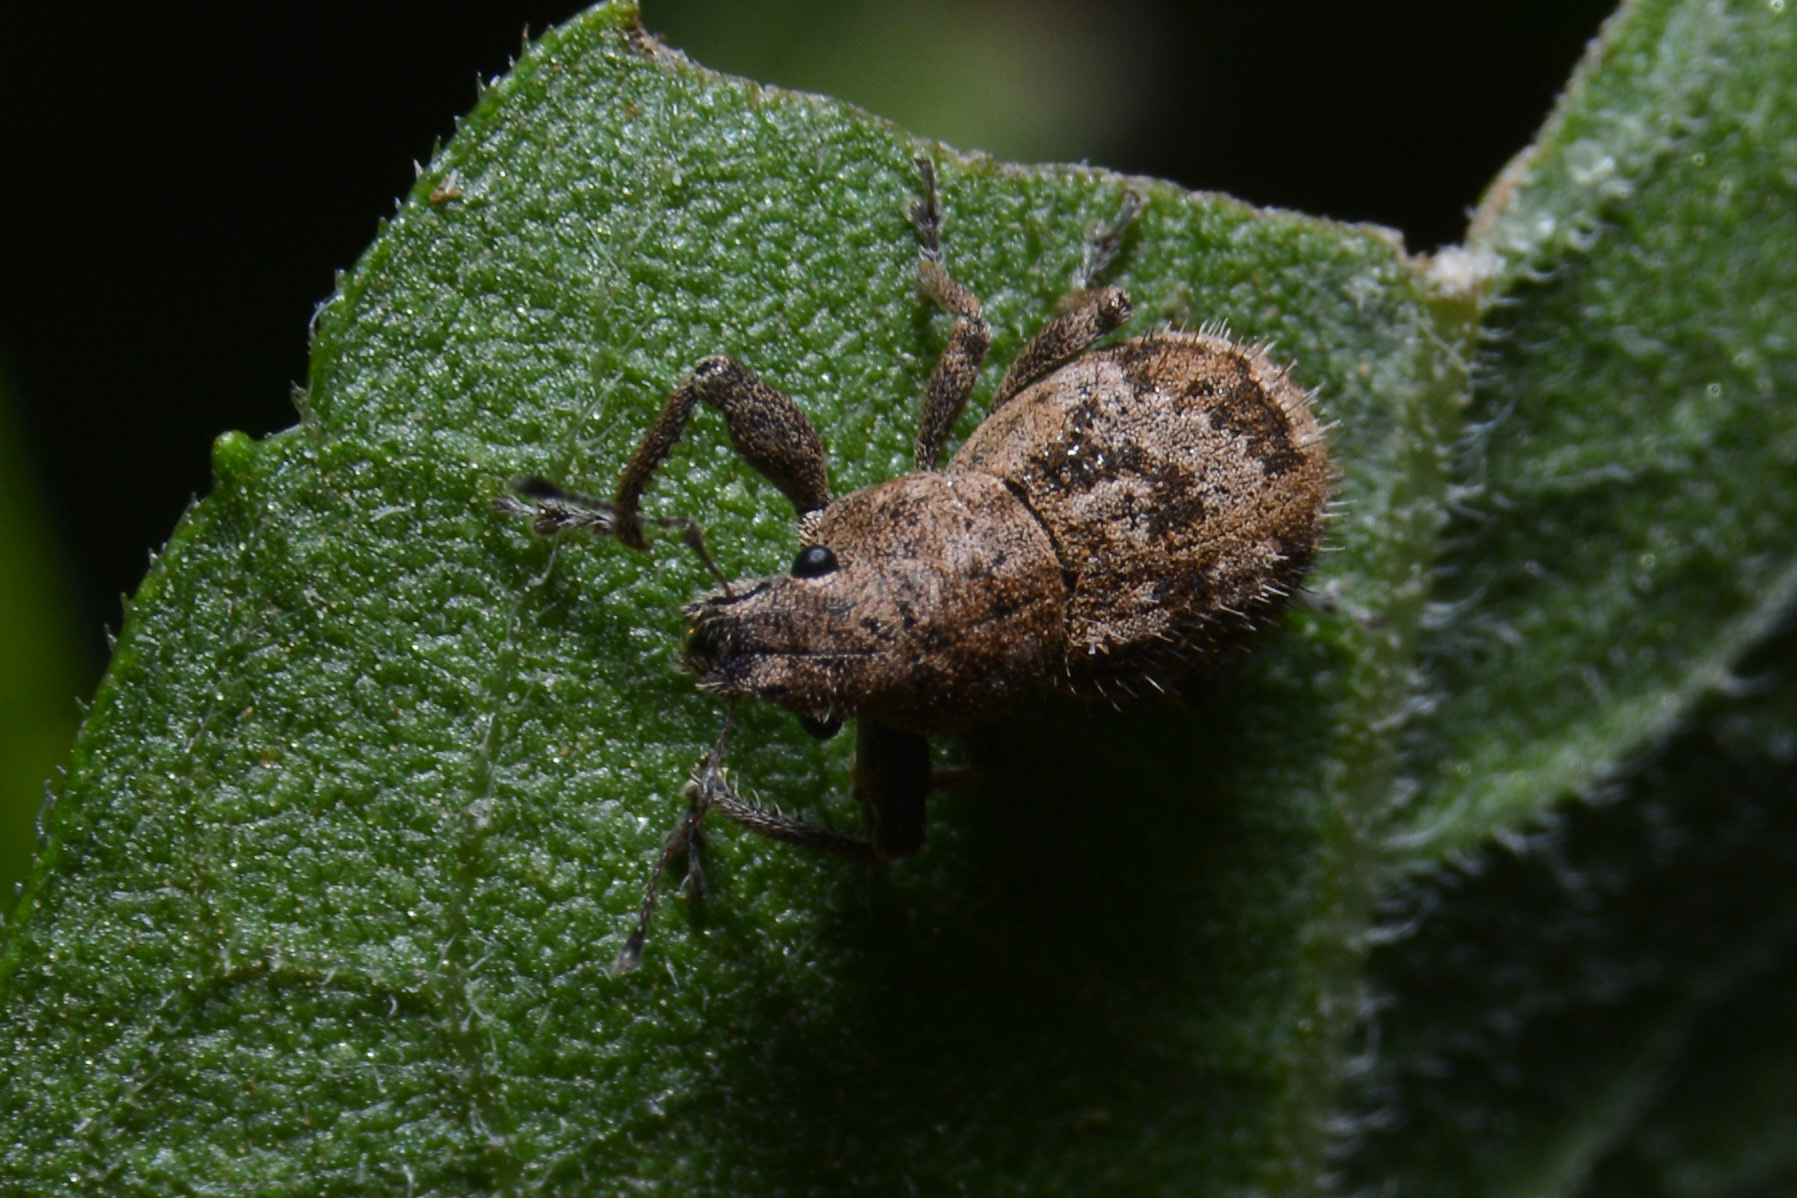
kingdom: Animalia
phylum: Arthropoda
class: Insecta
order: Coleoptera
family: Curculionidae
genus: Pantomorus
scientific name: Pantomorus
